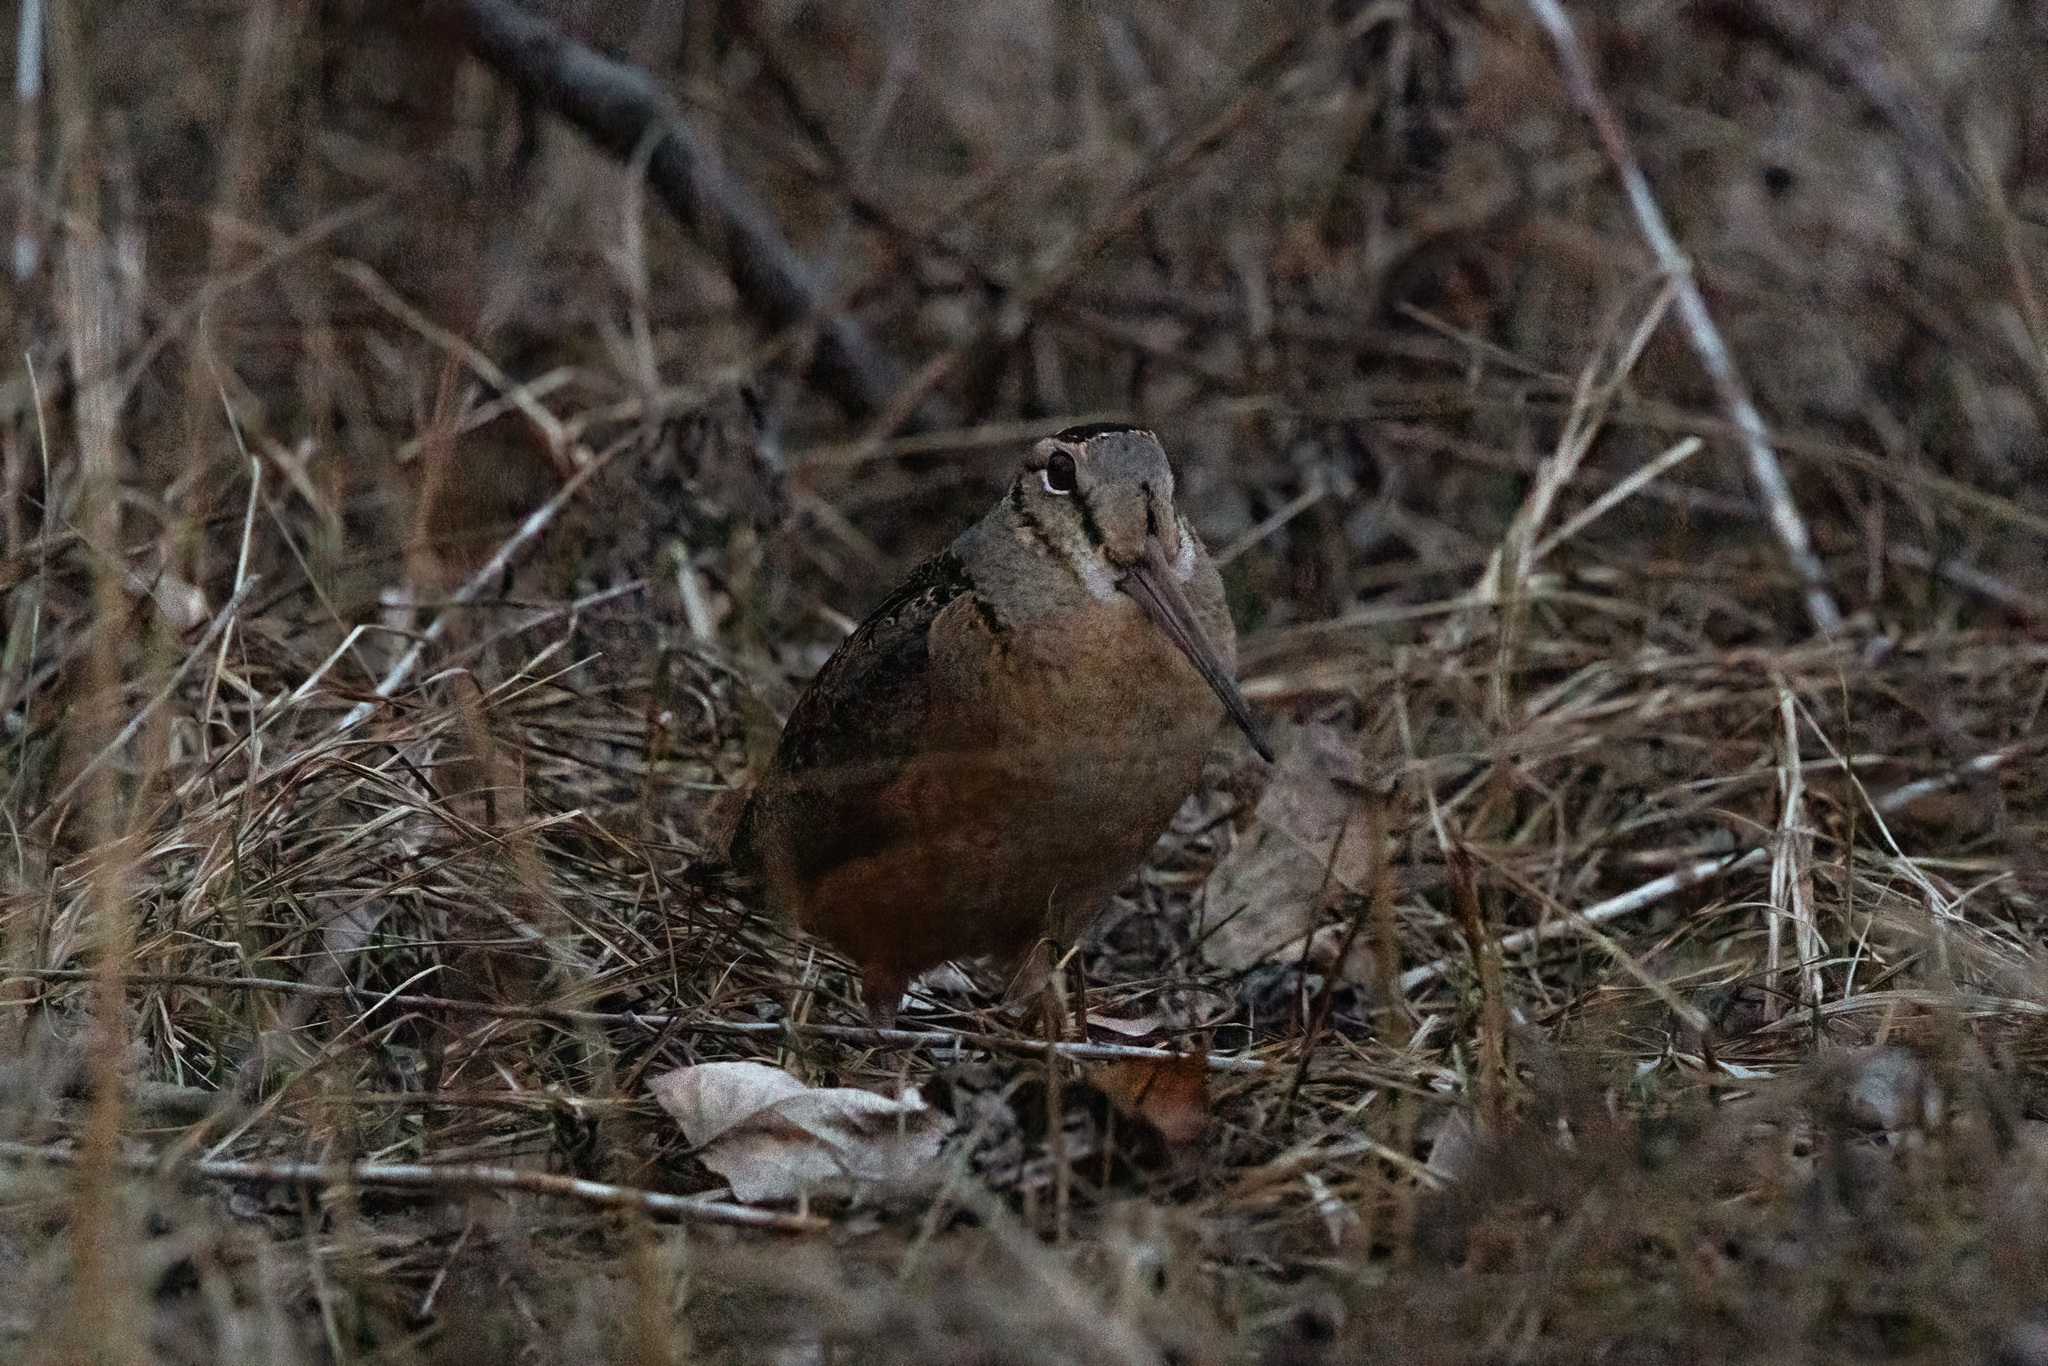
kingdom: Animalia
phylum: Chordata
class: Aves
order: Charadriiformes
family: Scolopacidae
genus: Scolopax
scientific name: Scolopax minor
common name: American woodcock
